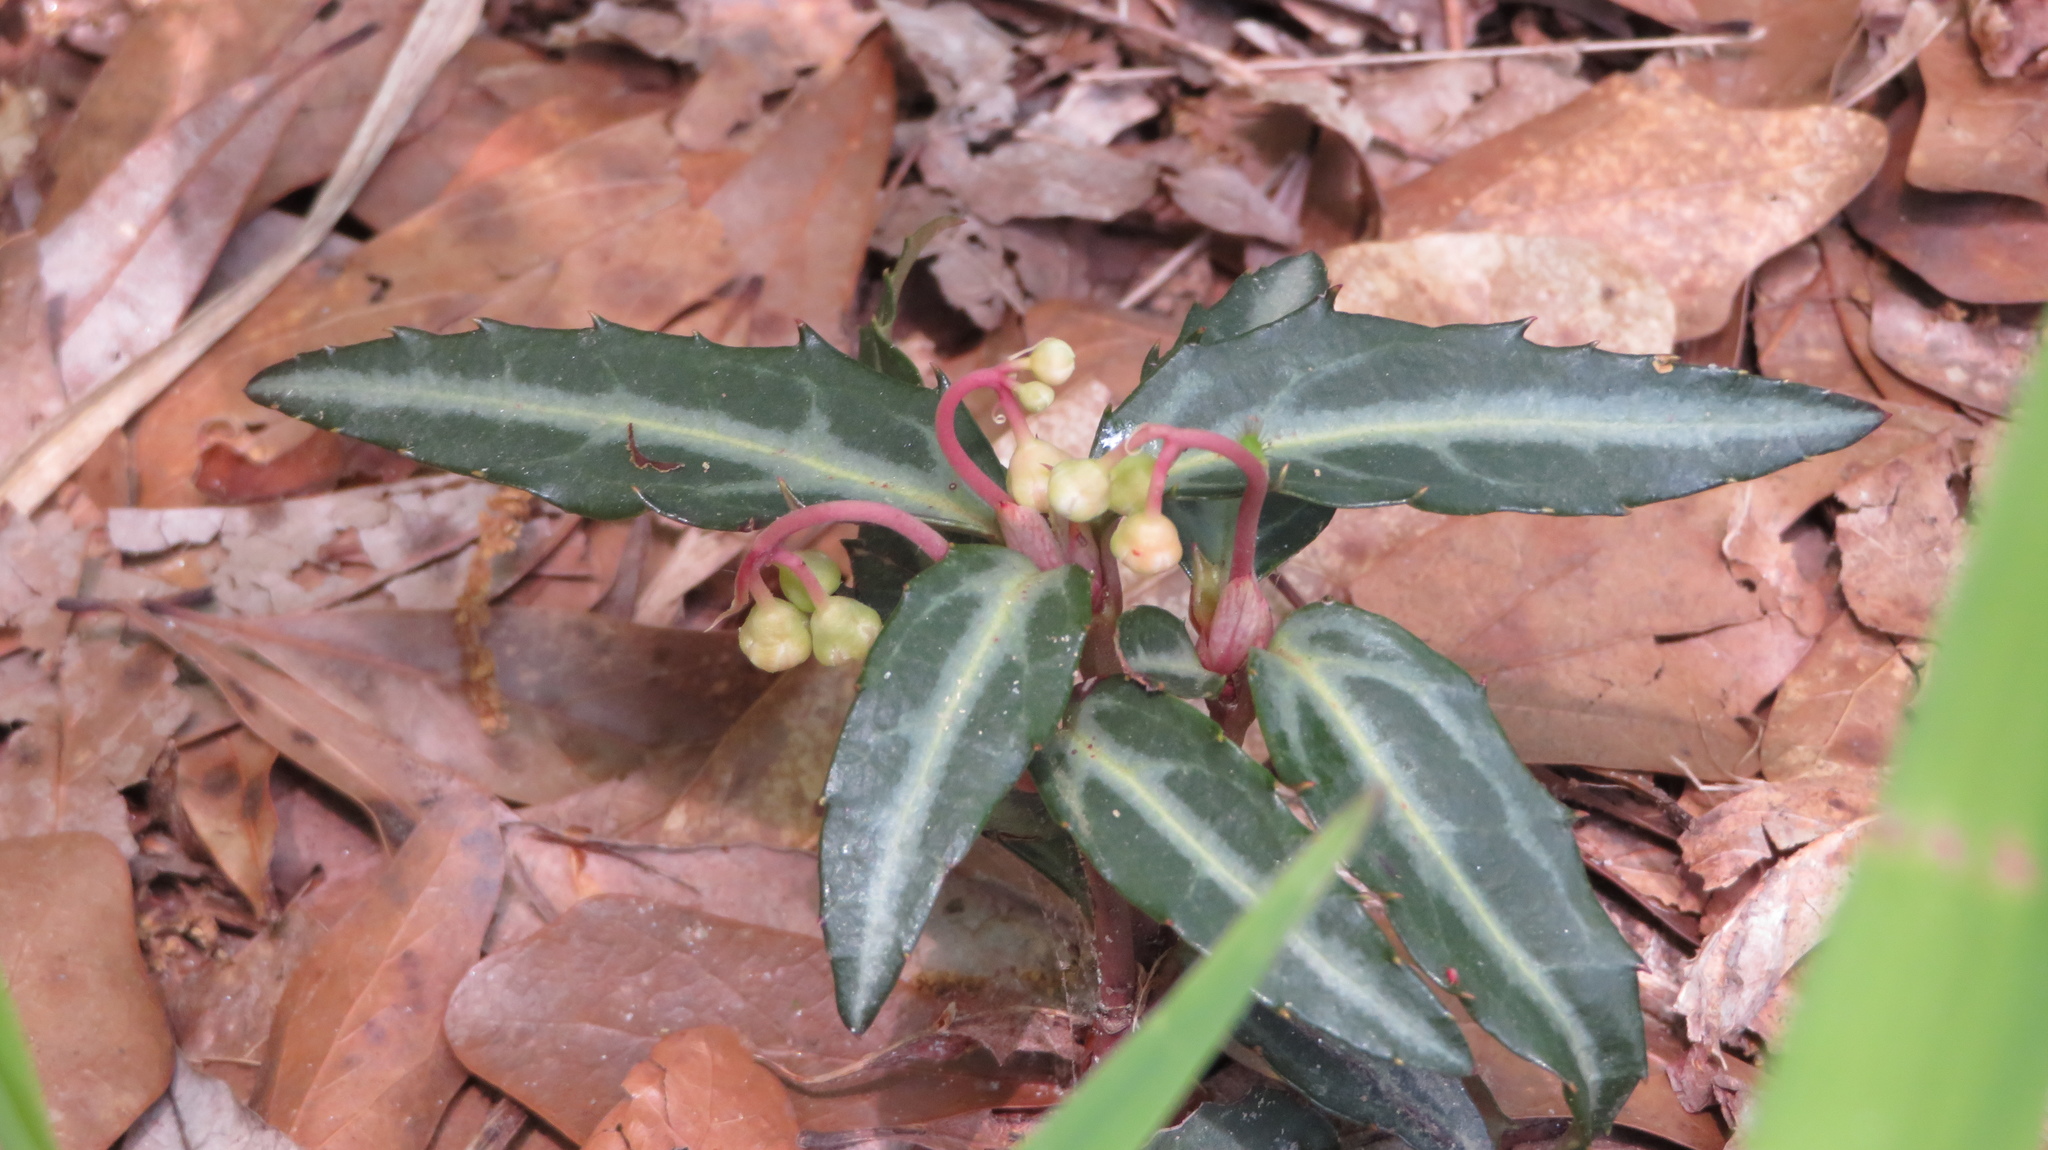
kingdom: Plantae
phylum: Tracheophyta
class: Magnoliopsida
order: Ericales
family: Ericaceae
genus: Chimaphila
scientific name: Chimaphila maculata
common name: Spotted pipsissewa
